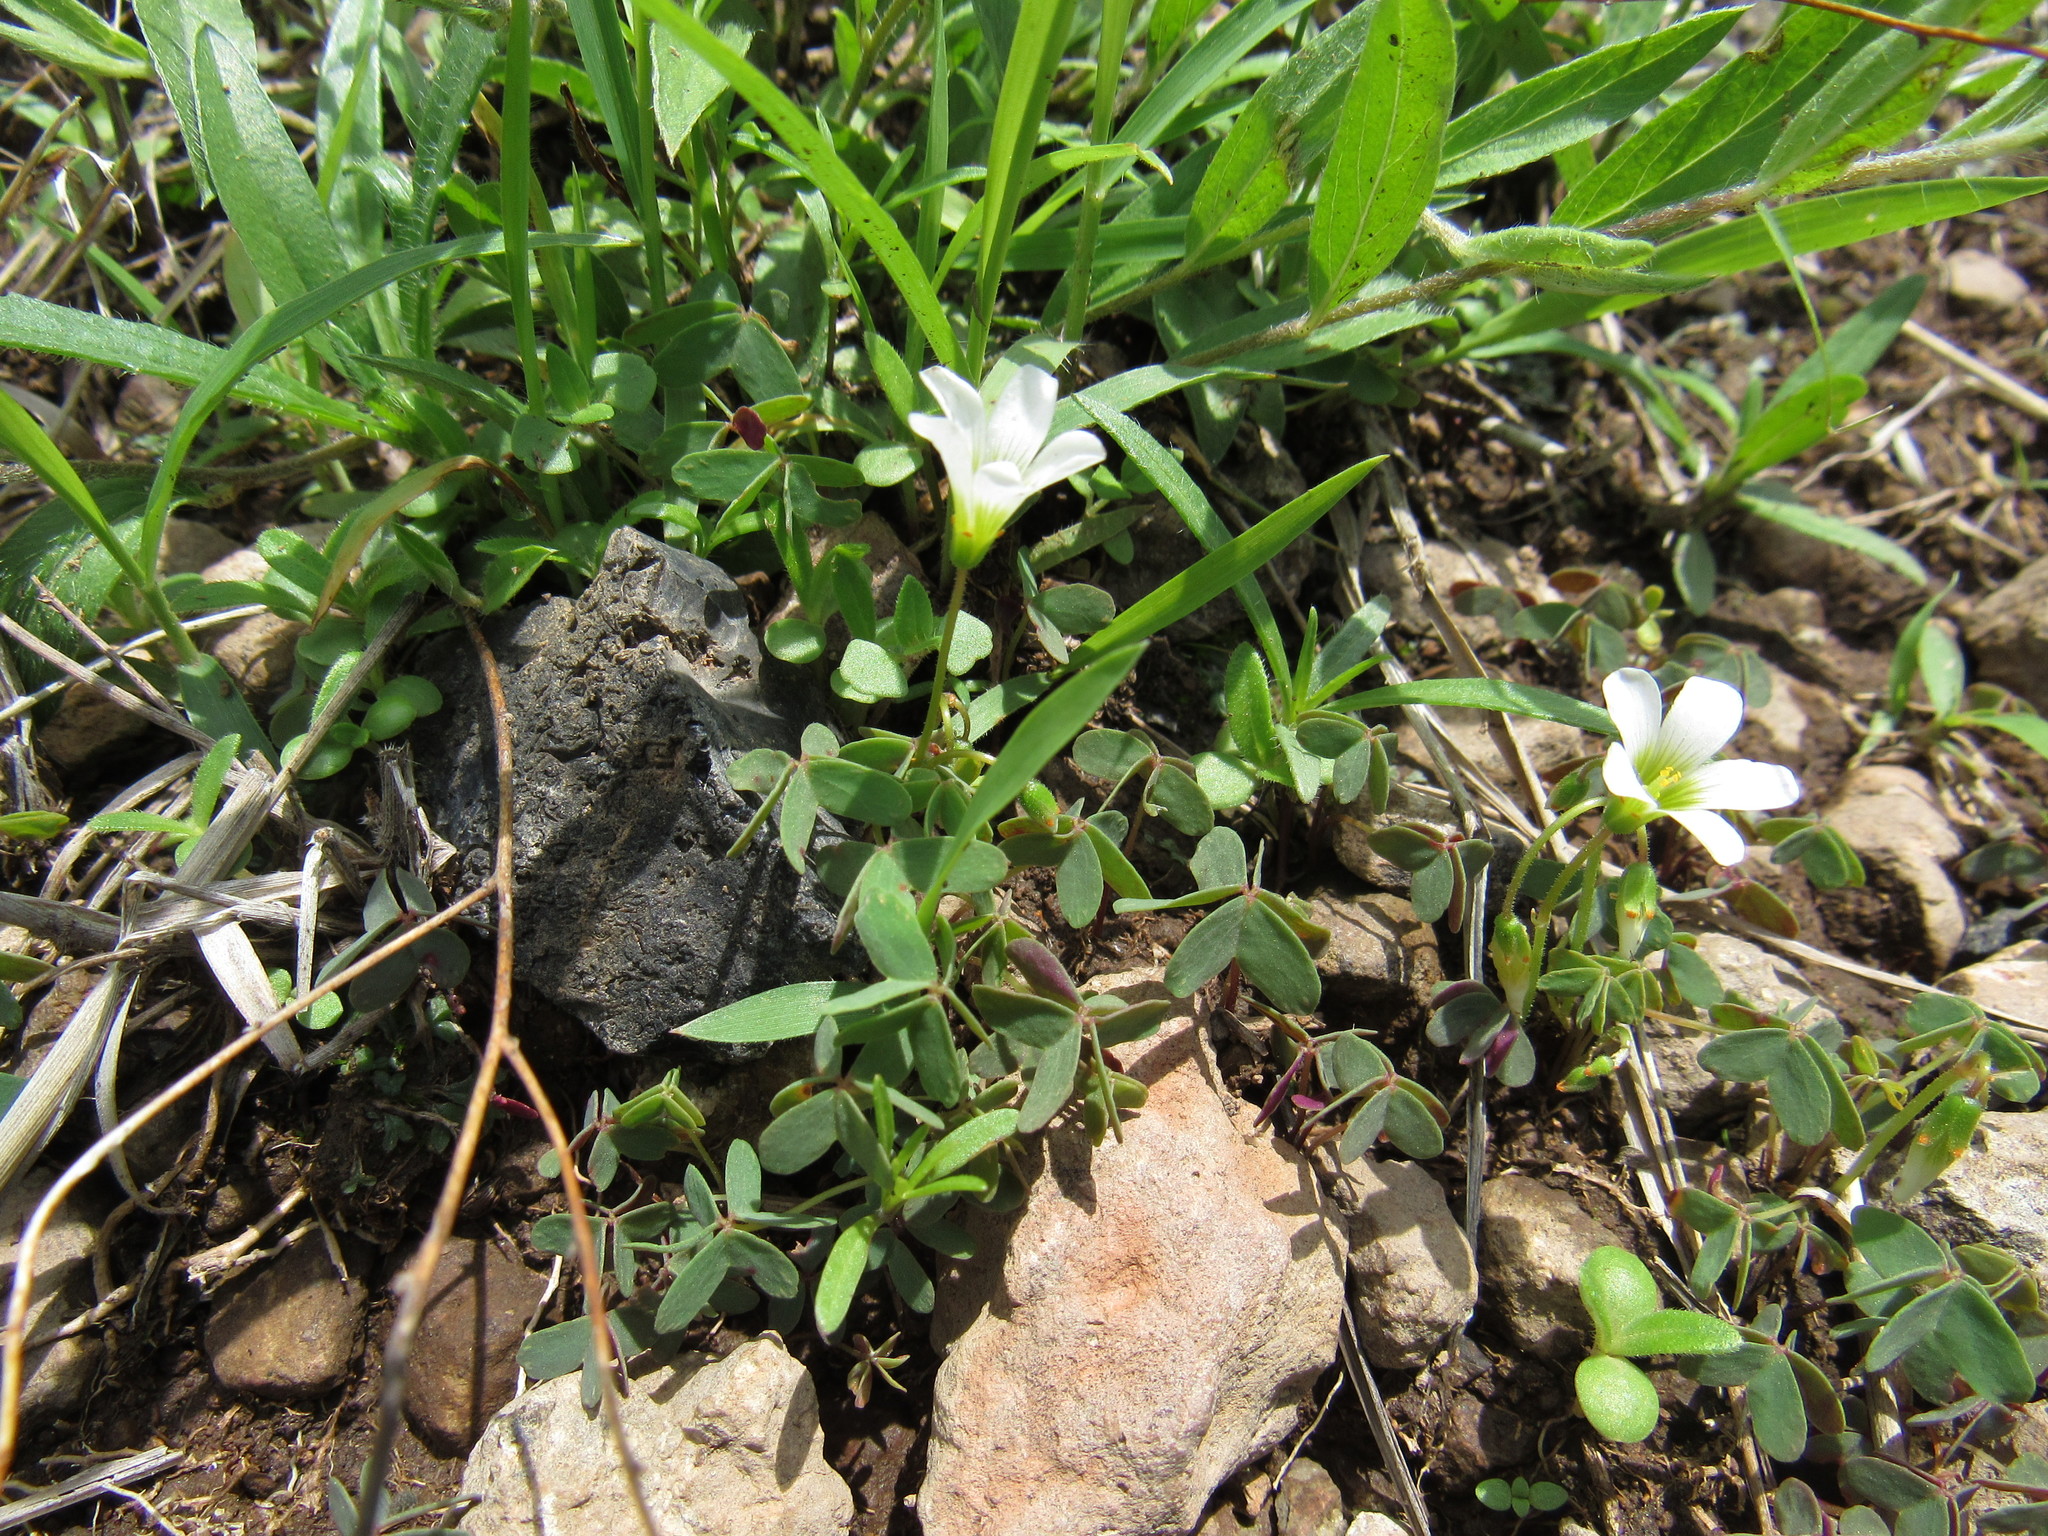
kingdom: Plantae
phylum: Tracheophyta
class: Magnoliopsida
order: Oxalidales
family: Oxalidaceae
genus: Oxalis
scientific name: Oxalis alpina
